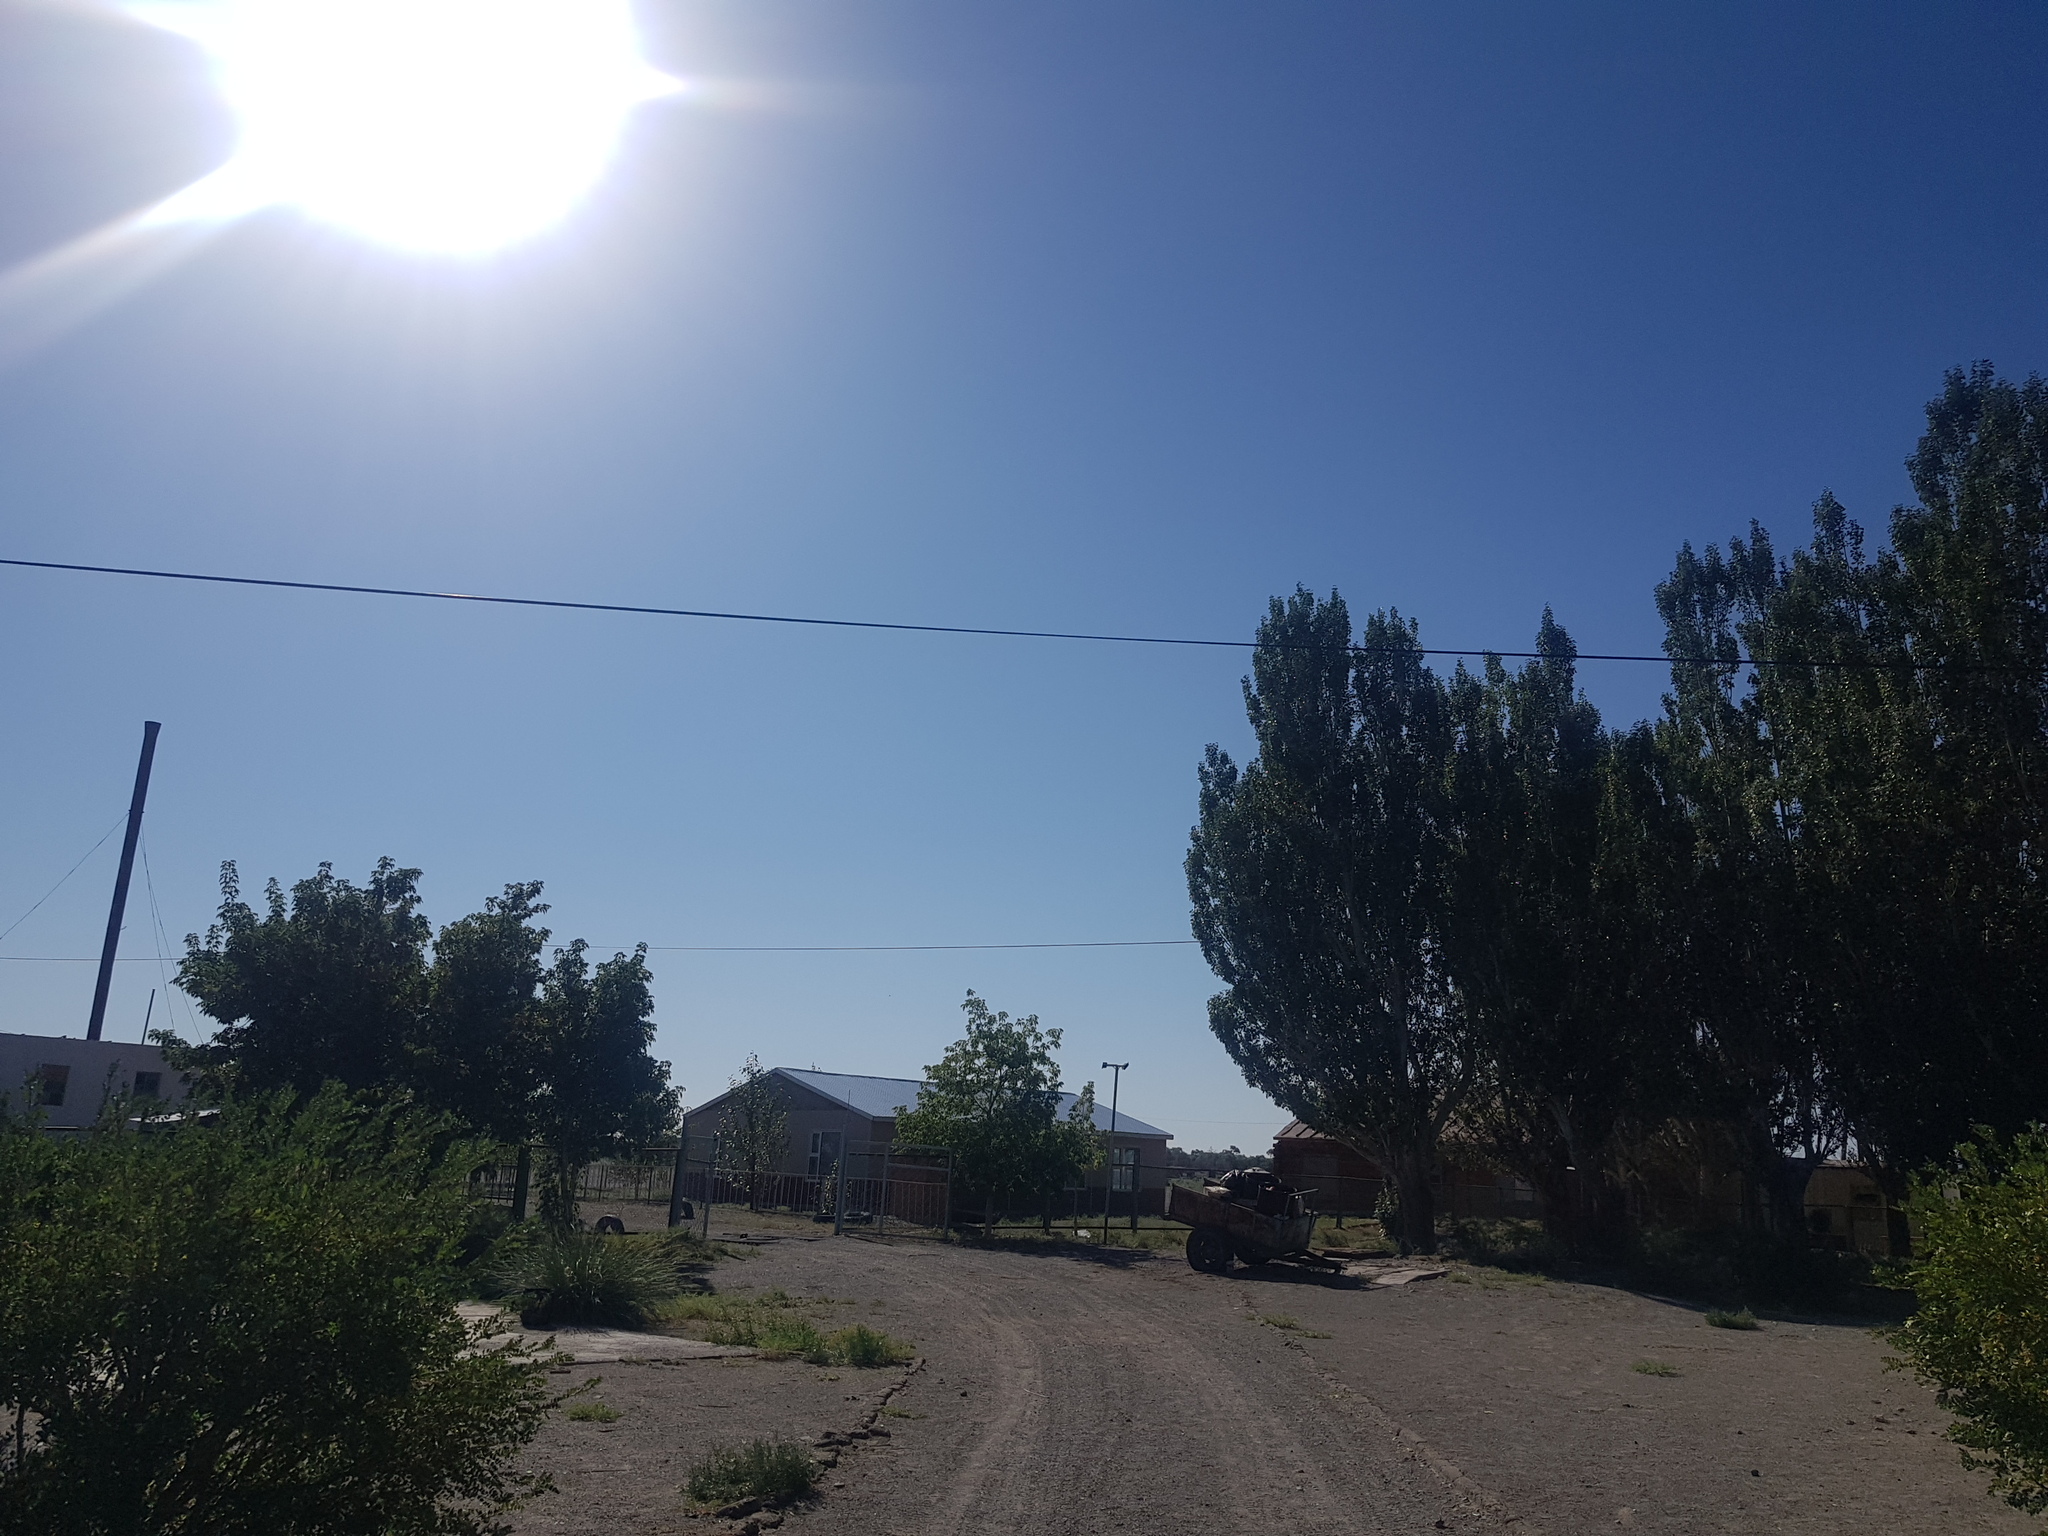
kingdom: Plantae
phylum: Tracheophyta
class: Magnoliopsida
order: Malpighiales
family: Salicaceae
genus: Populus
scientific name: Populus alba
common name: White poplar
